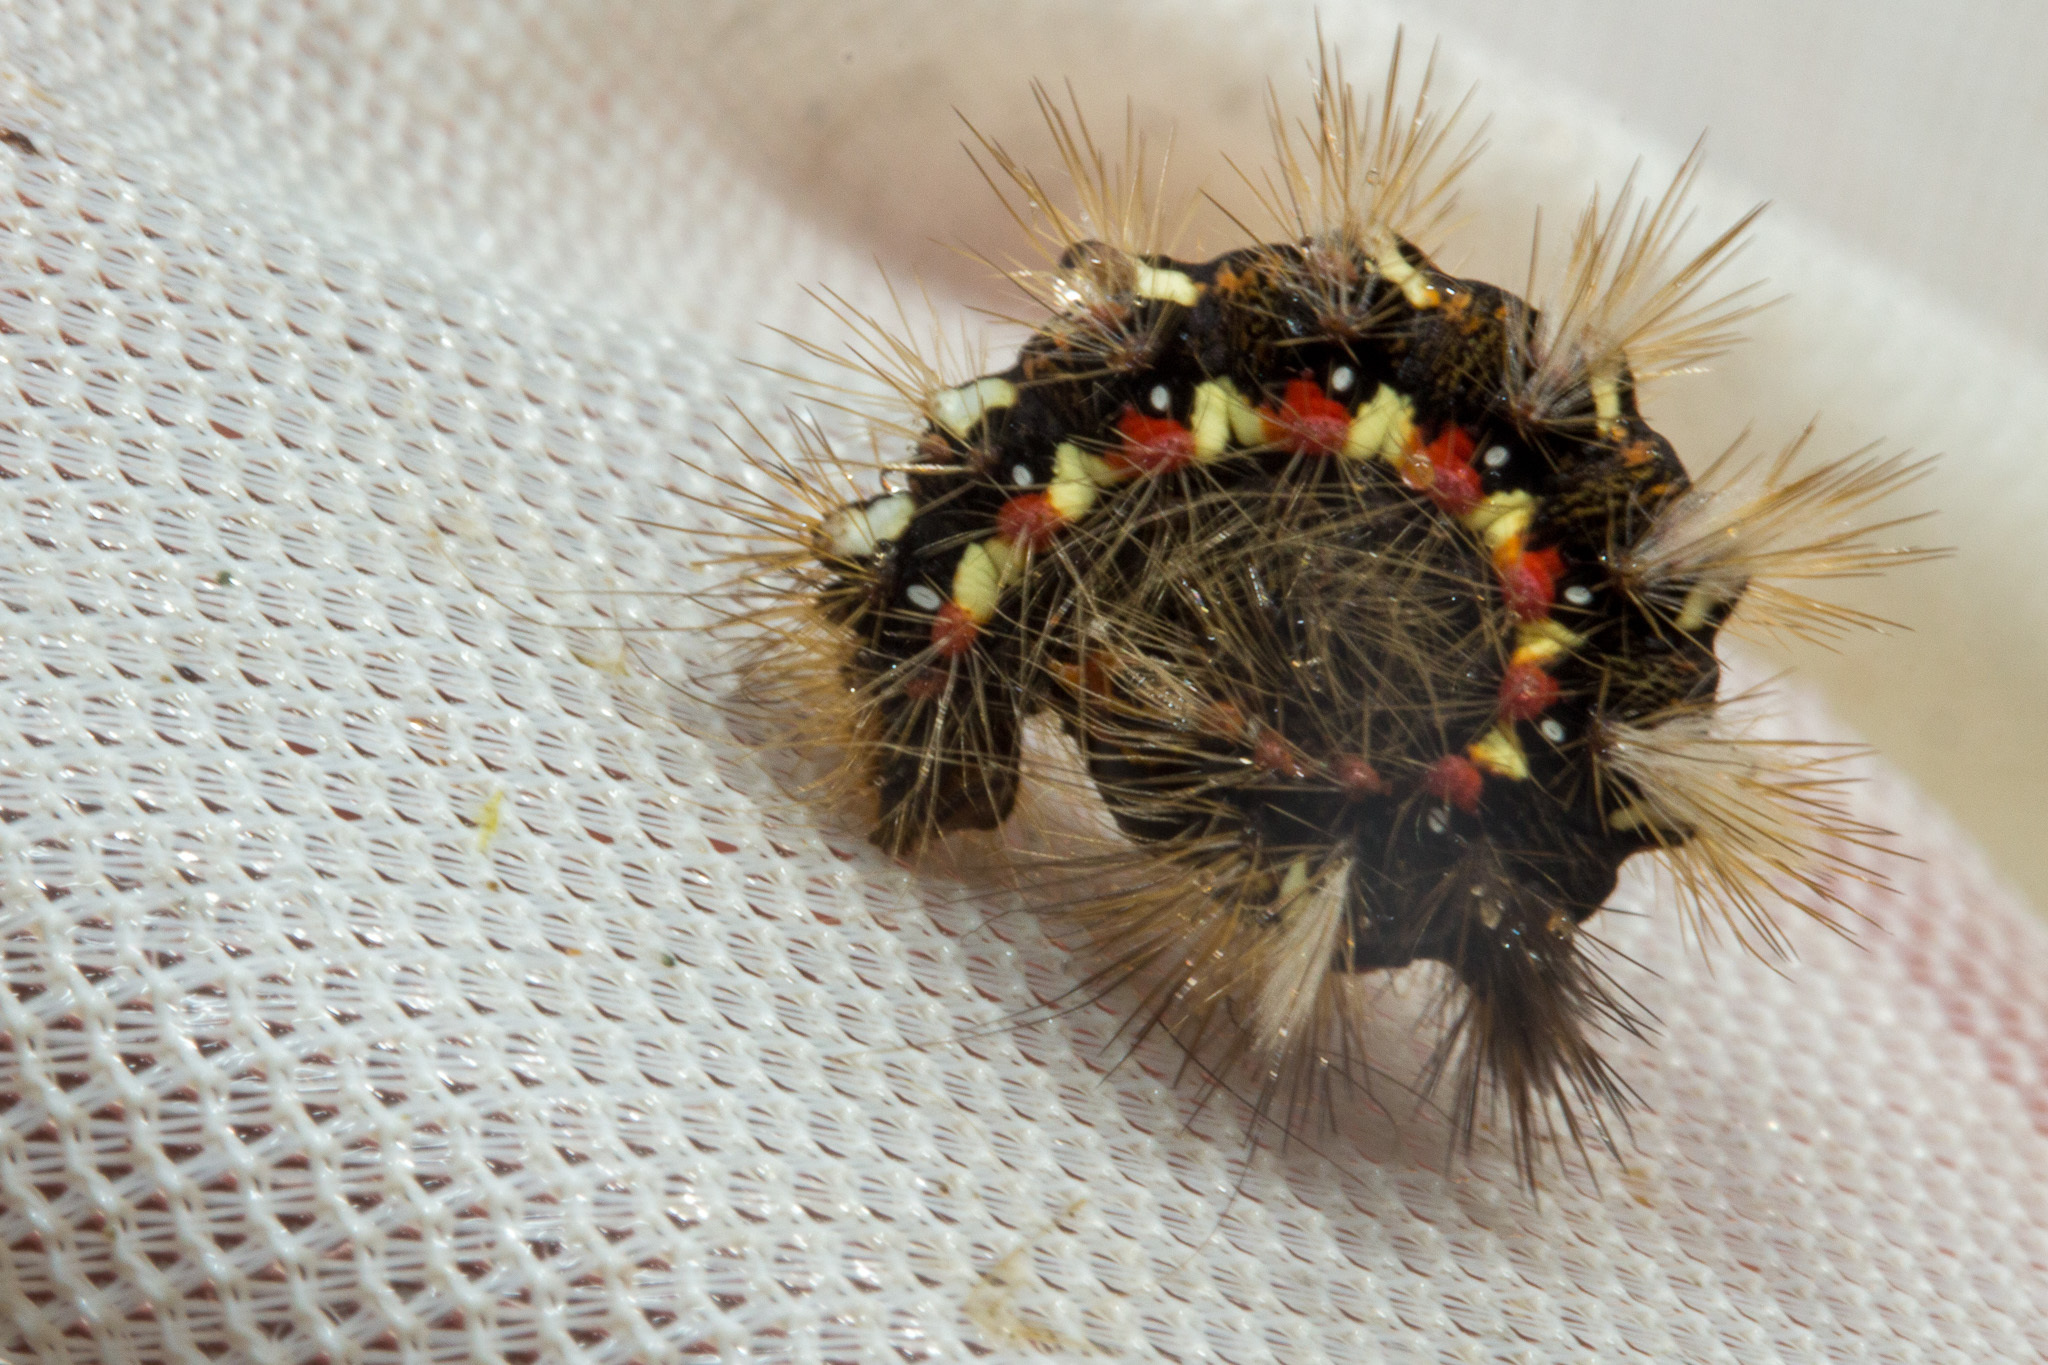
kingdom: Animalia
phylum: Arthropoda
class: Insecta
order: Lepidoptera
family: Noctuidae
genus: Acronicta
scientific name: Acronicta rumicis
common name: Knot grass
